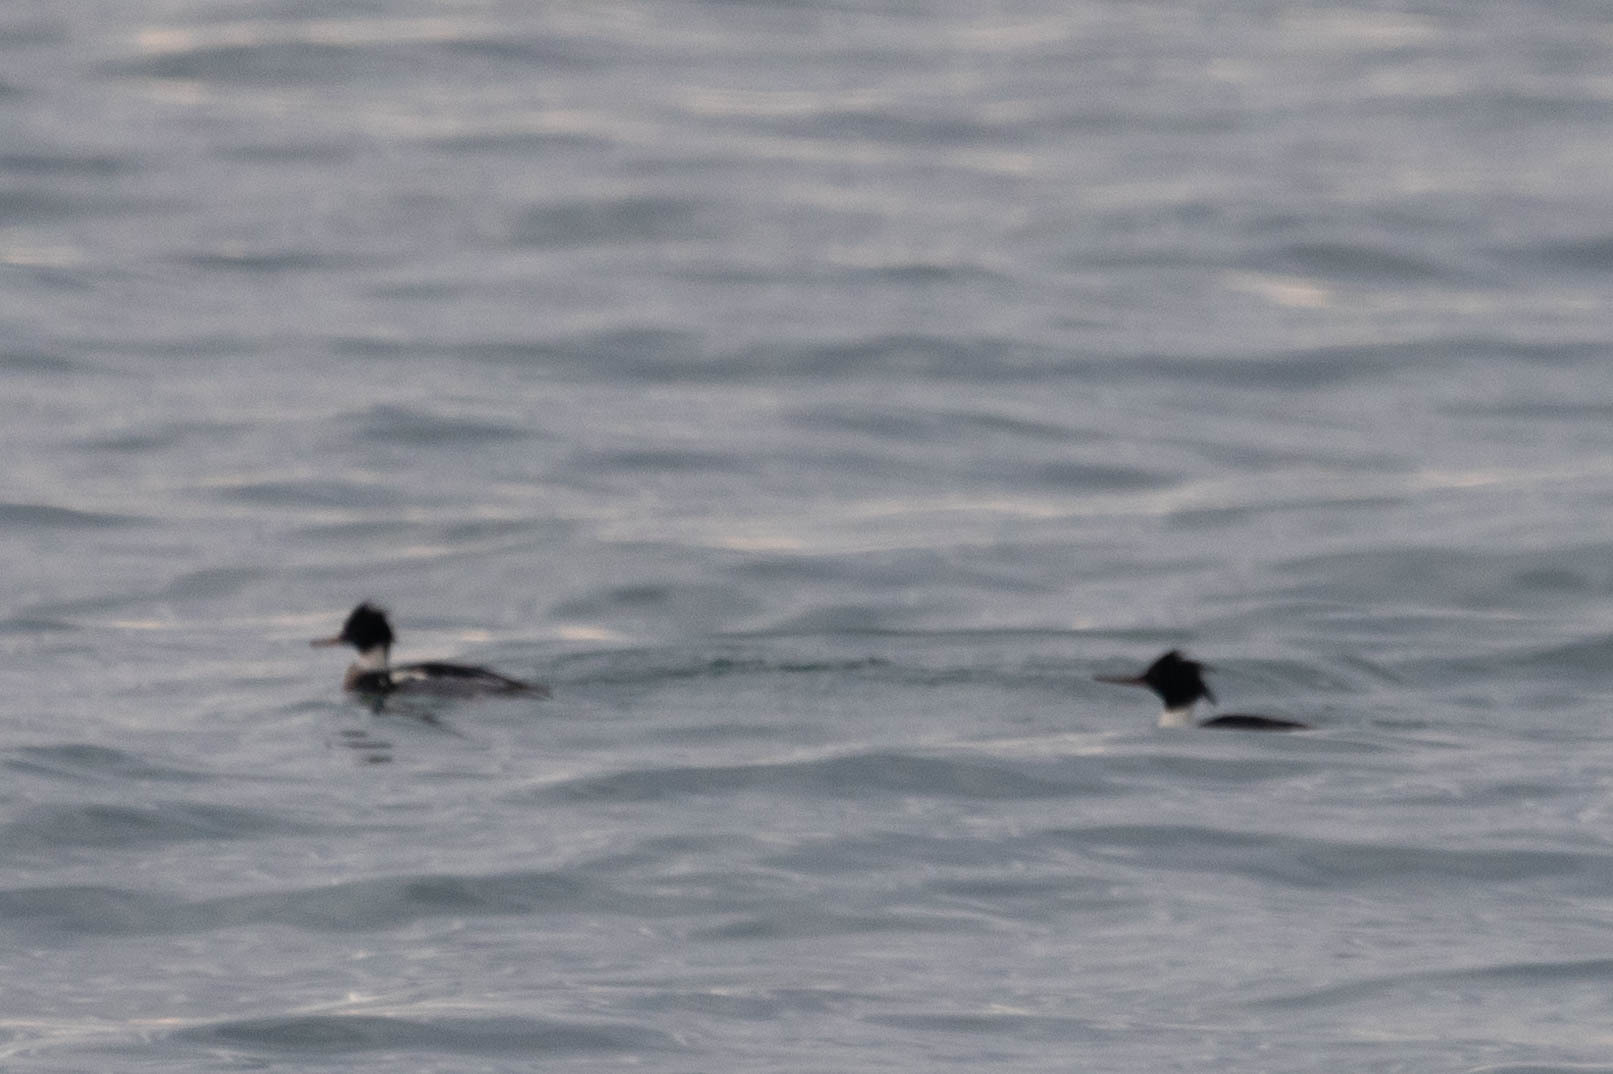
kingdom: Animalia
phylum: Chordata
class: Aves
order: Anseriformes
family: Anatidae
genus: Mergus
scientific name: Mergus serrator
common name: Red-breasted merganser
